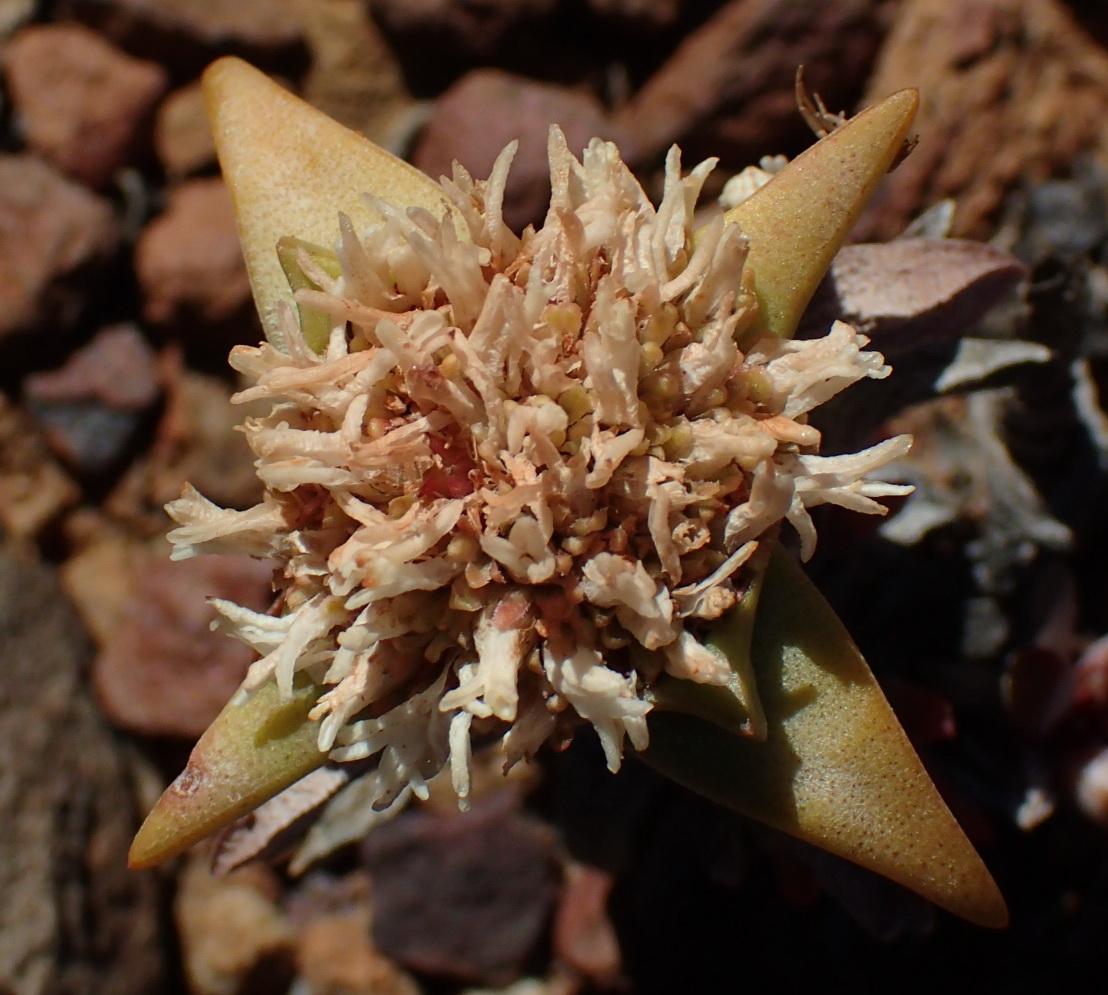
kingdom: Plantae
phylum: Tracheophyta
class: Magnoliopsida
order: Saxifragales
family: Crassulaceae
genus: Crassula
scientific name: Crassula congesta
